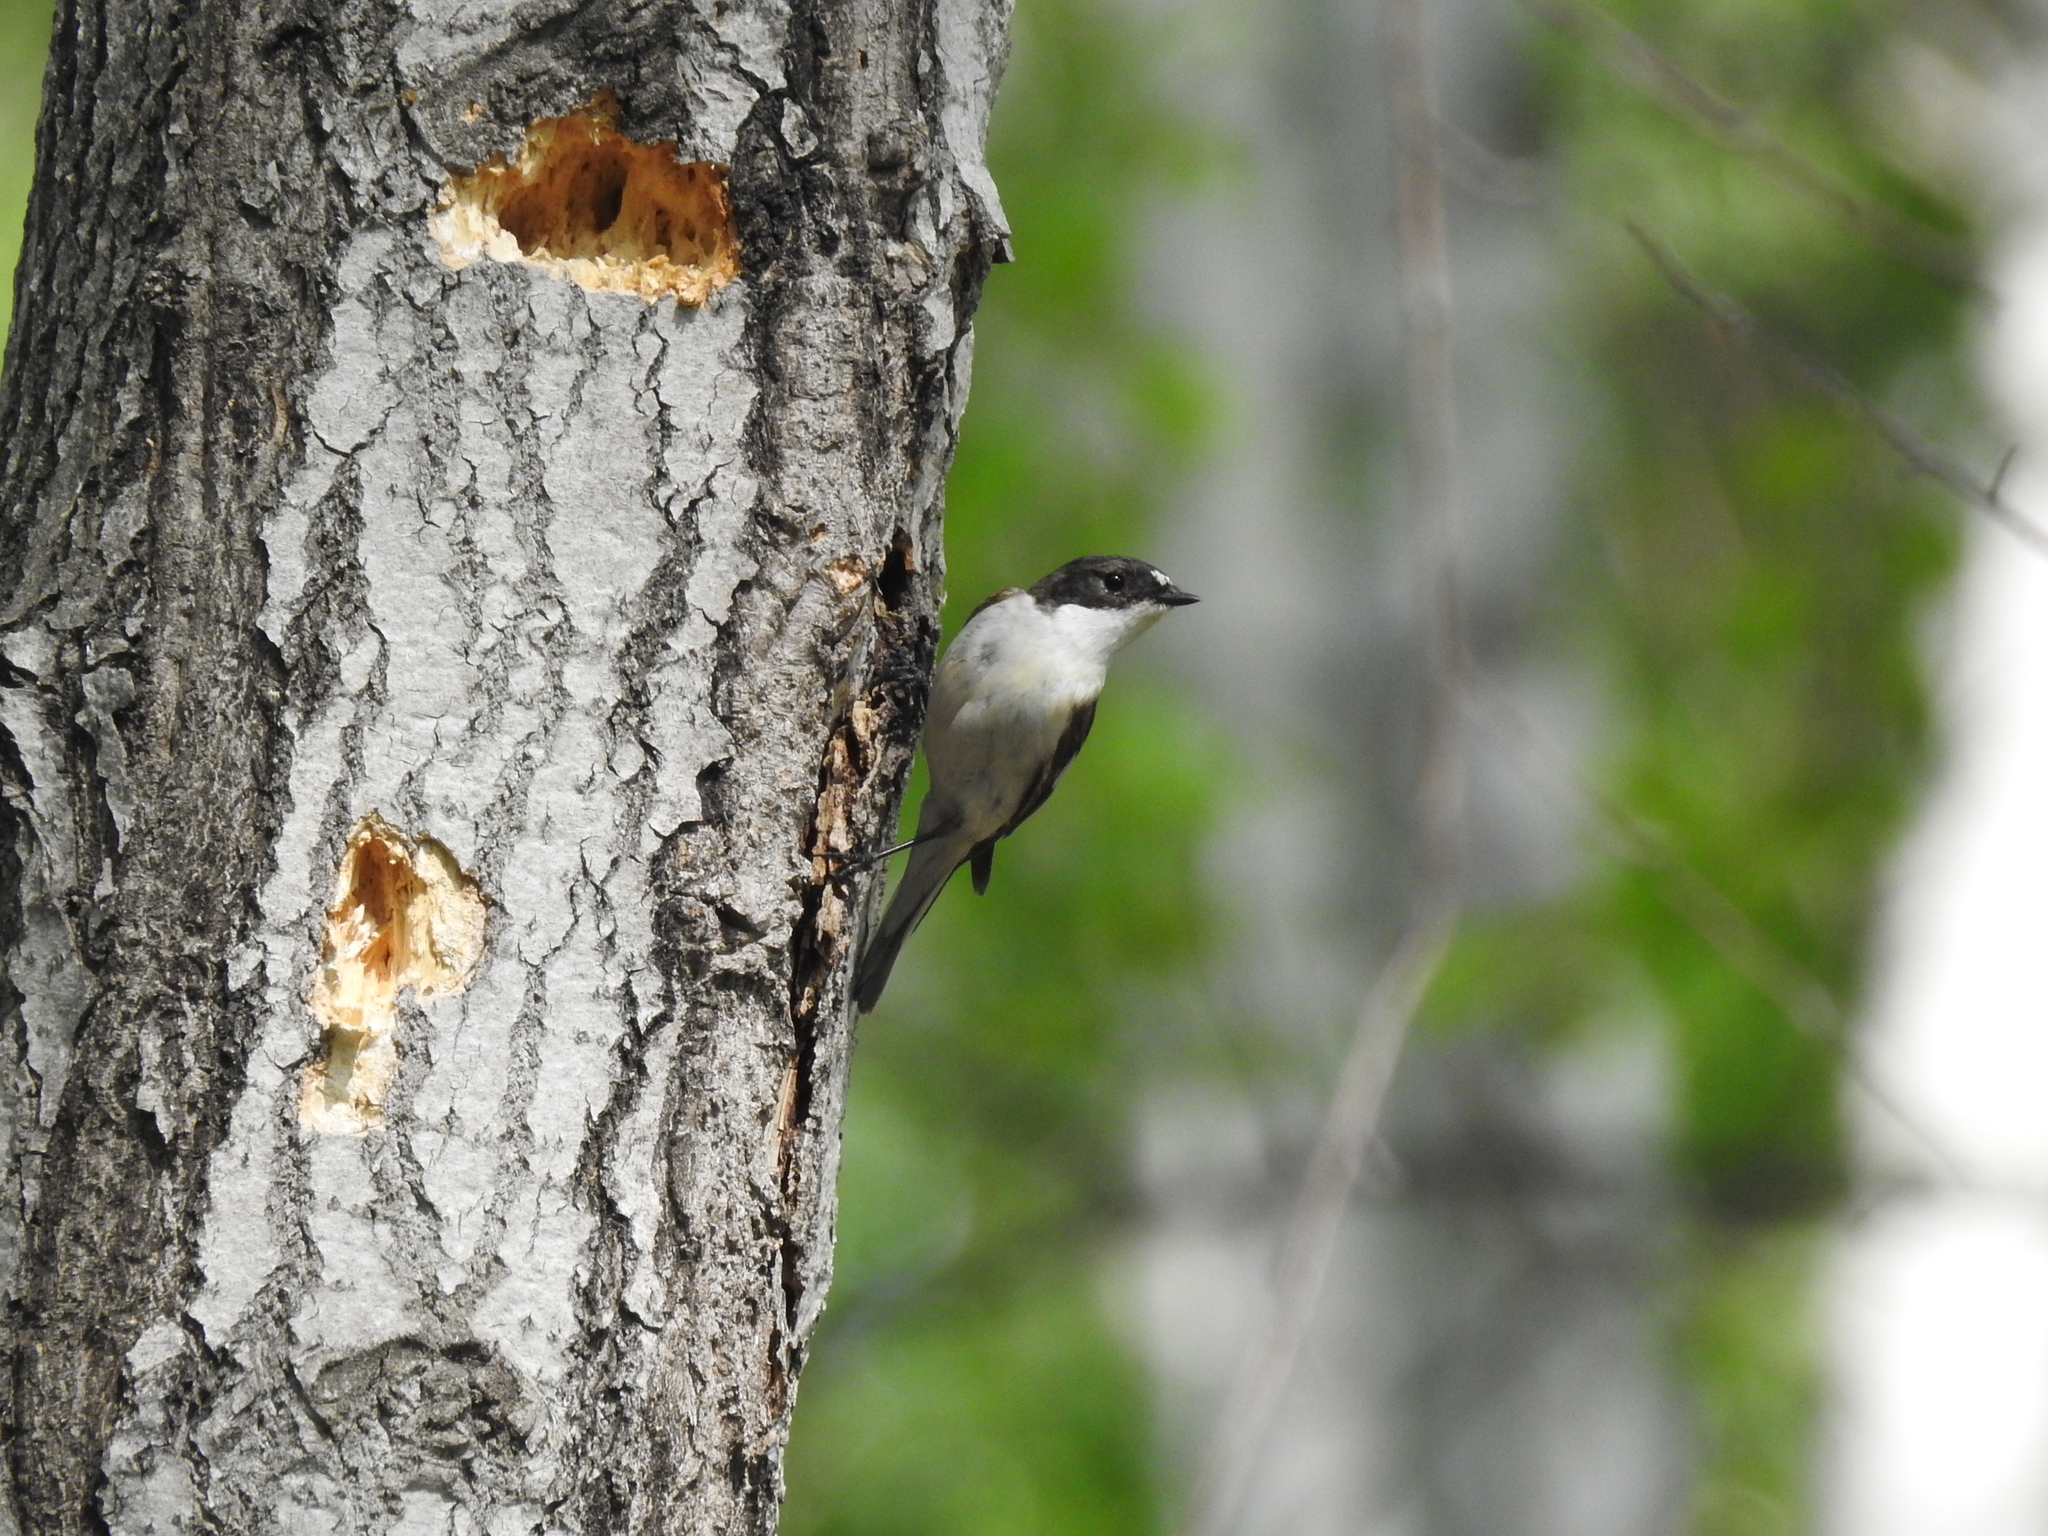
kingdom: Animalia
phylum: Chordata
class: Aves
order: Passeriformes
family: Muscicapidae
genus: Ficedula
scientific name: Ficedula hypoleuca
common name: European pied flycatcher
